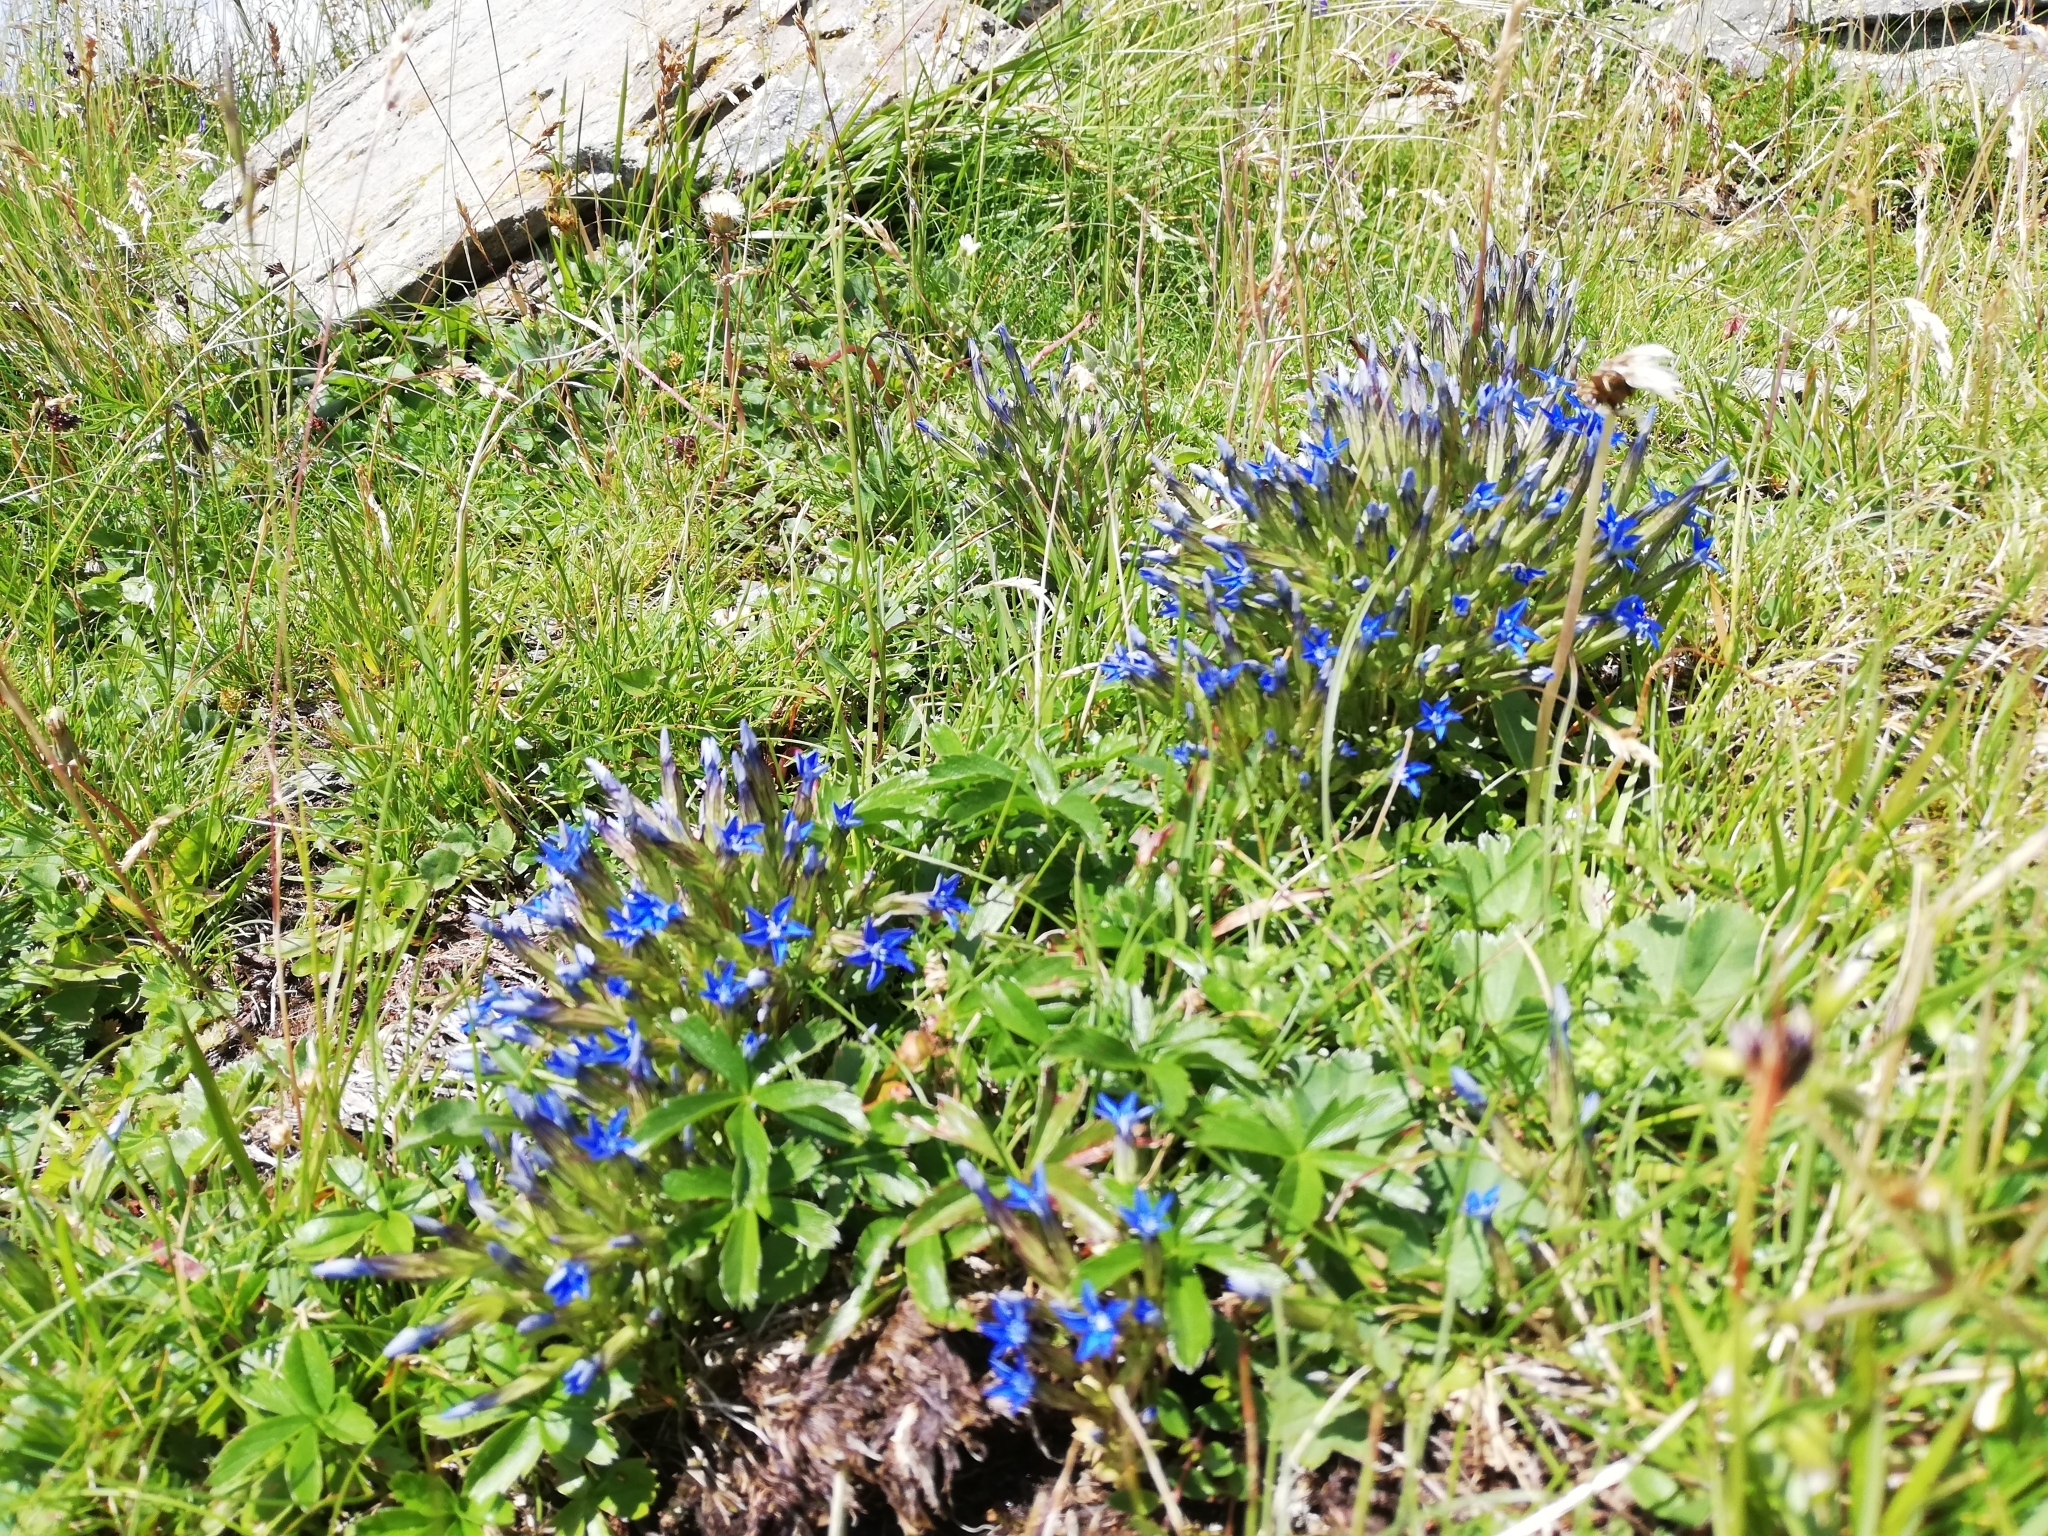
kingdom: Plantae
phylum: Tracheophyta
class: Magnoliopsida
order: Gentianales
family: Gentianaceae
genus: Gentiana
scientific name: Gentiana nivalis
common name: Alpine gentian
